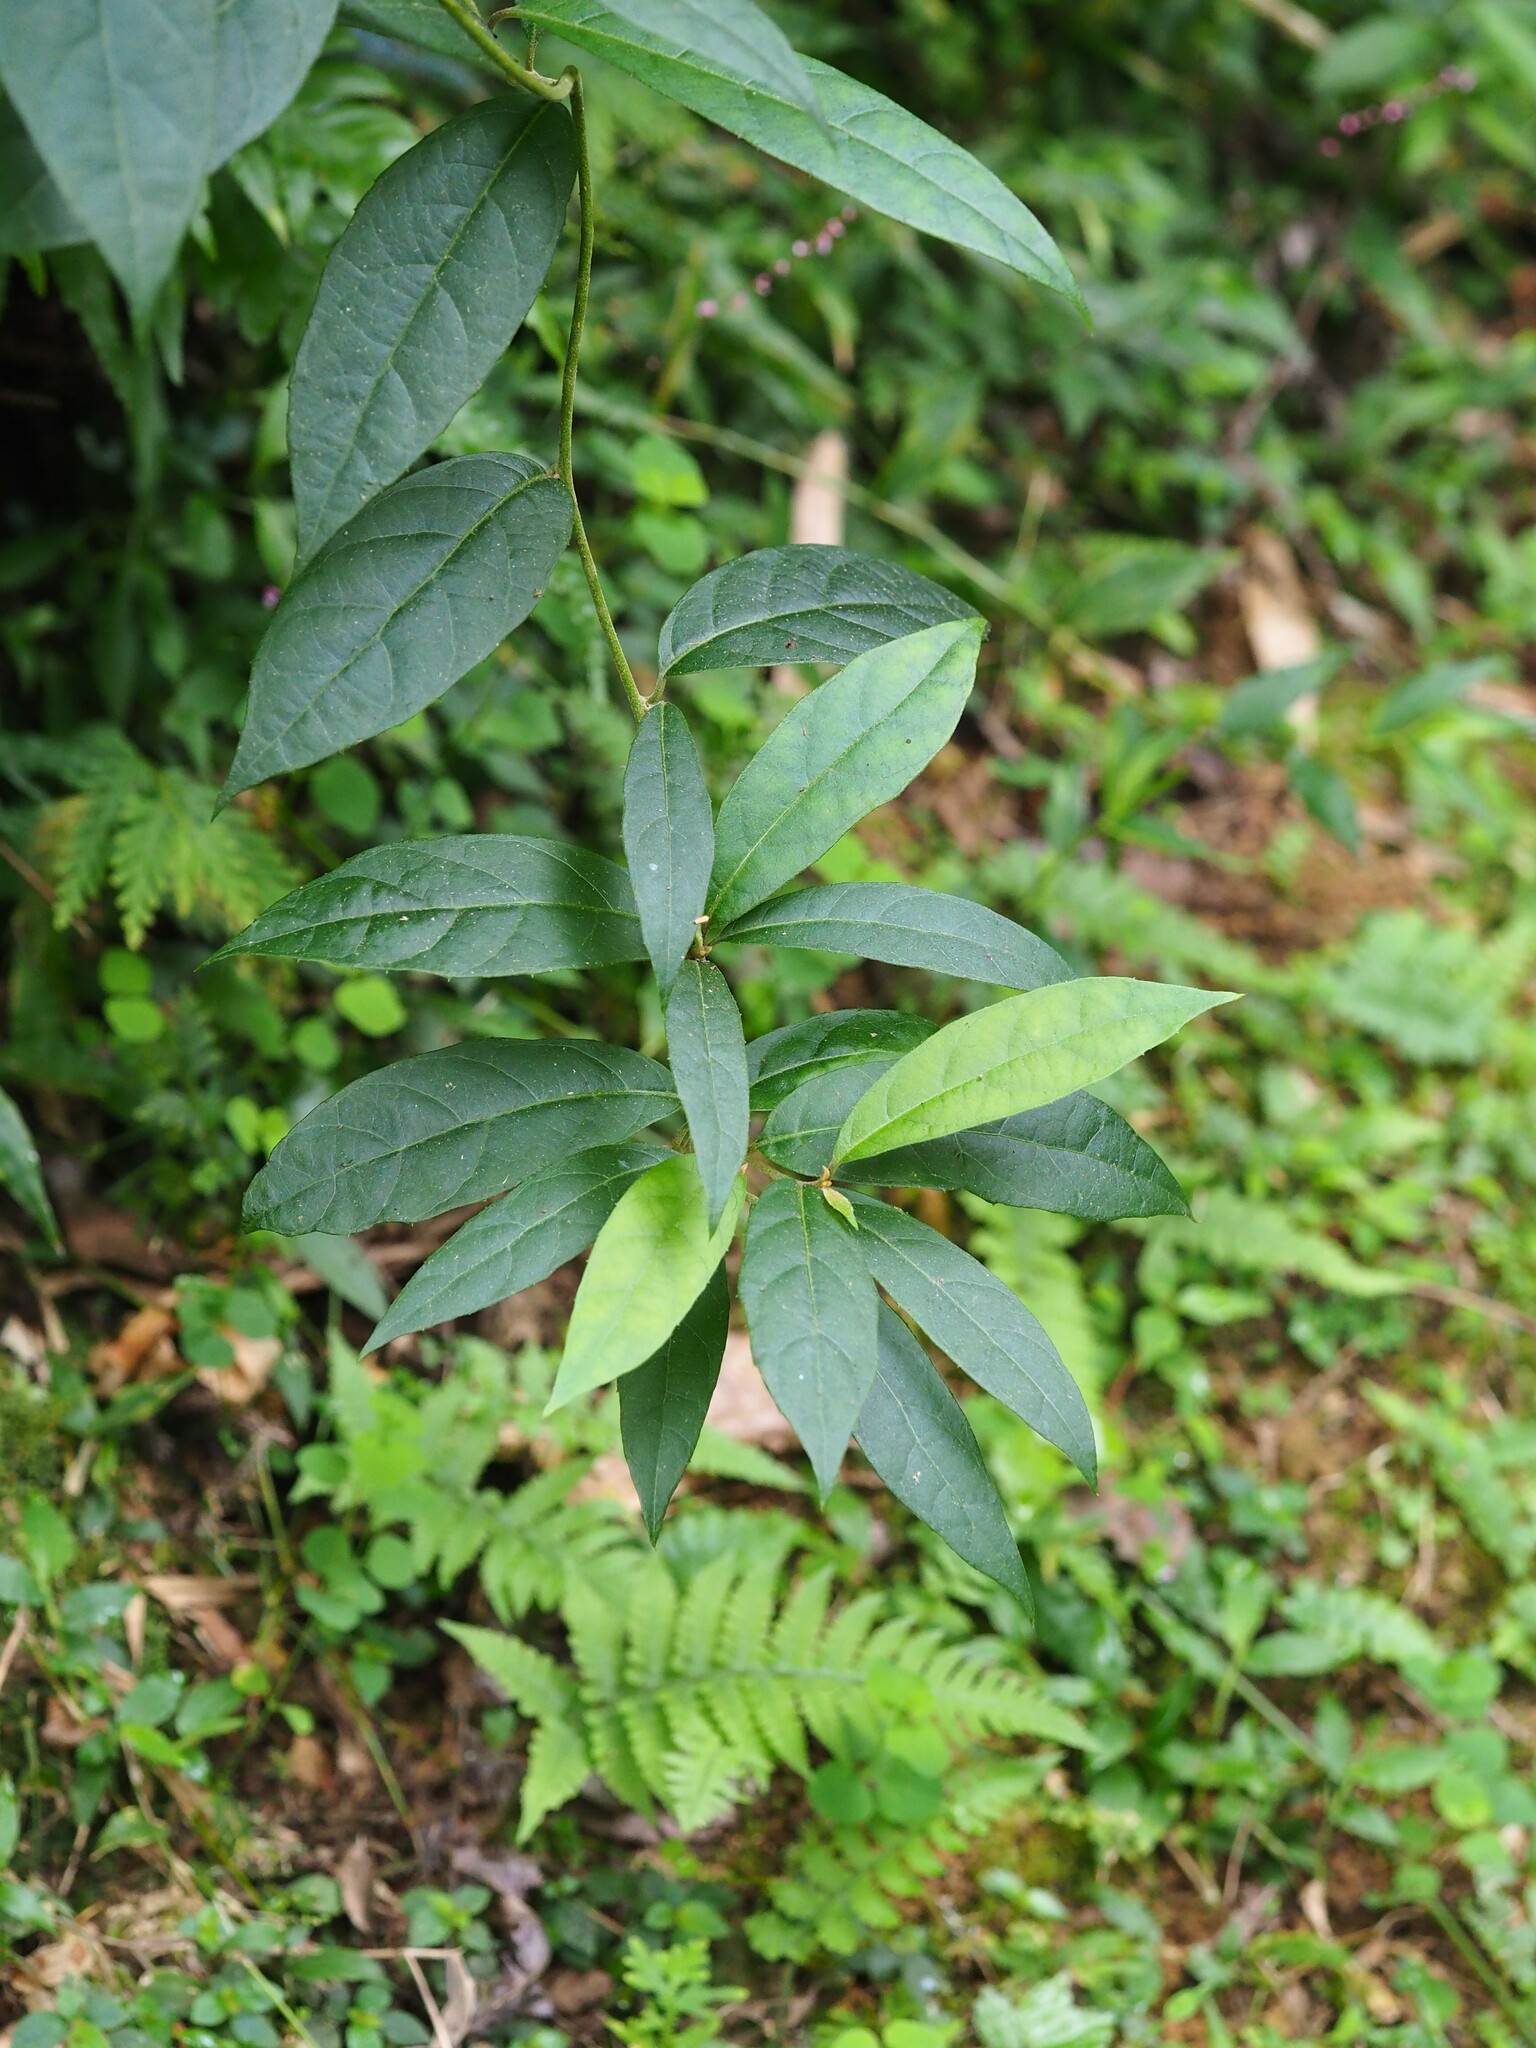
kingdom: Plantae
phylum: Tracheophyta
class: Magnoliopsida
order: Asterales
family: Asteraceae
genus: Decaneuropsis
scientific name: Decaneuropsis gratiosa
